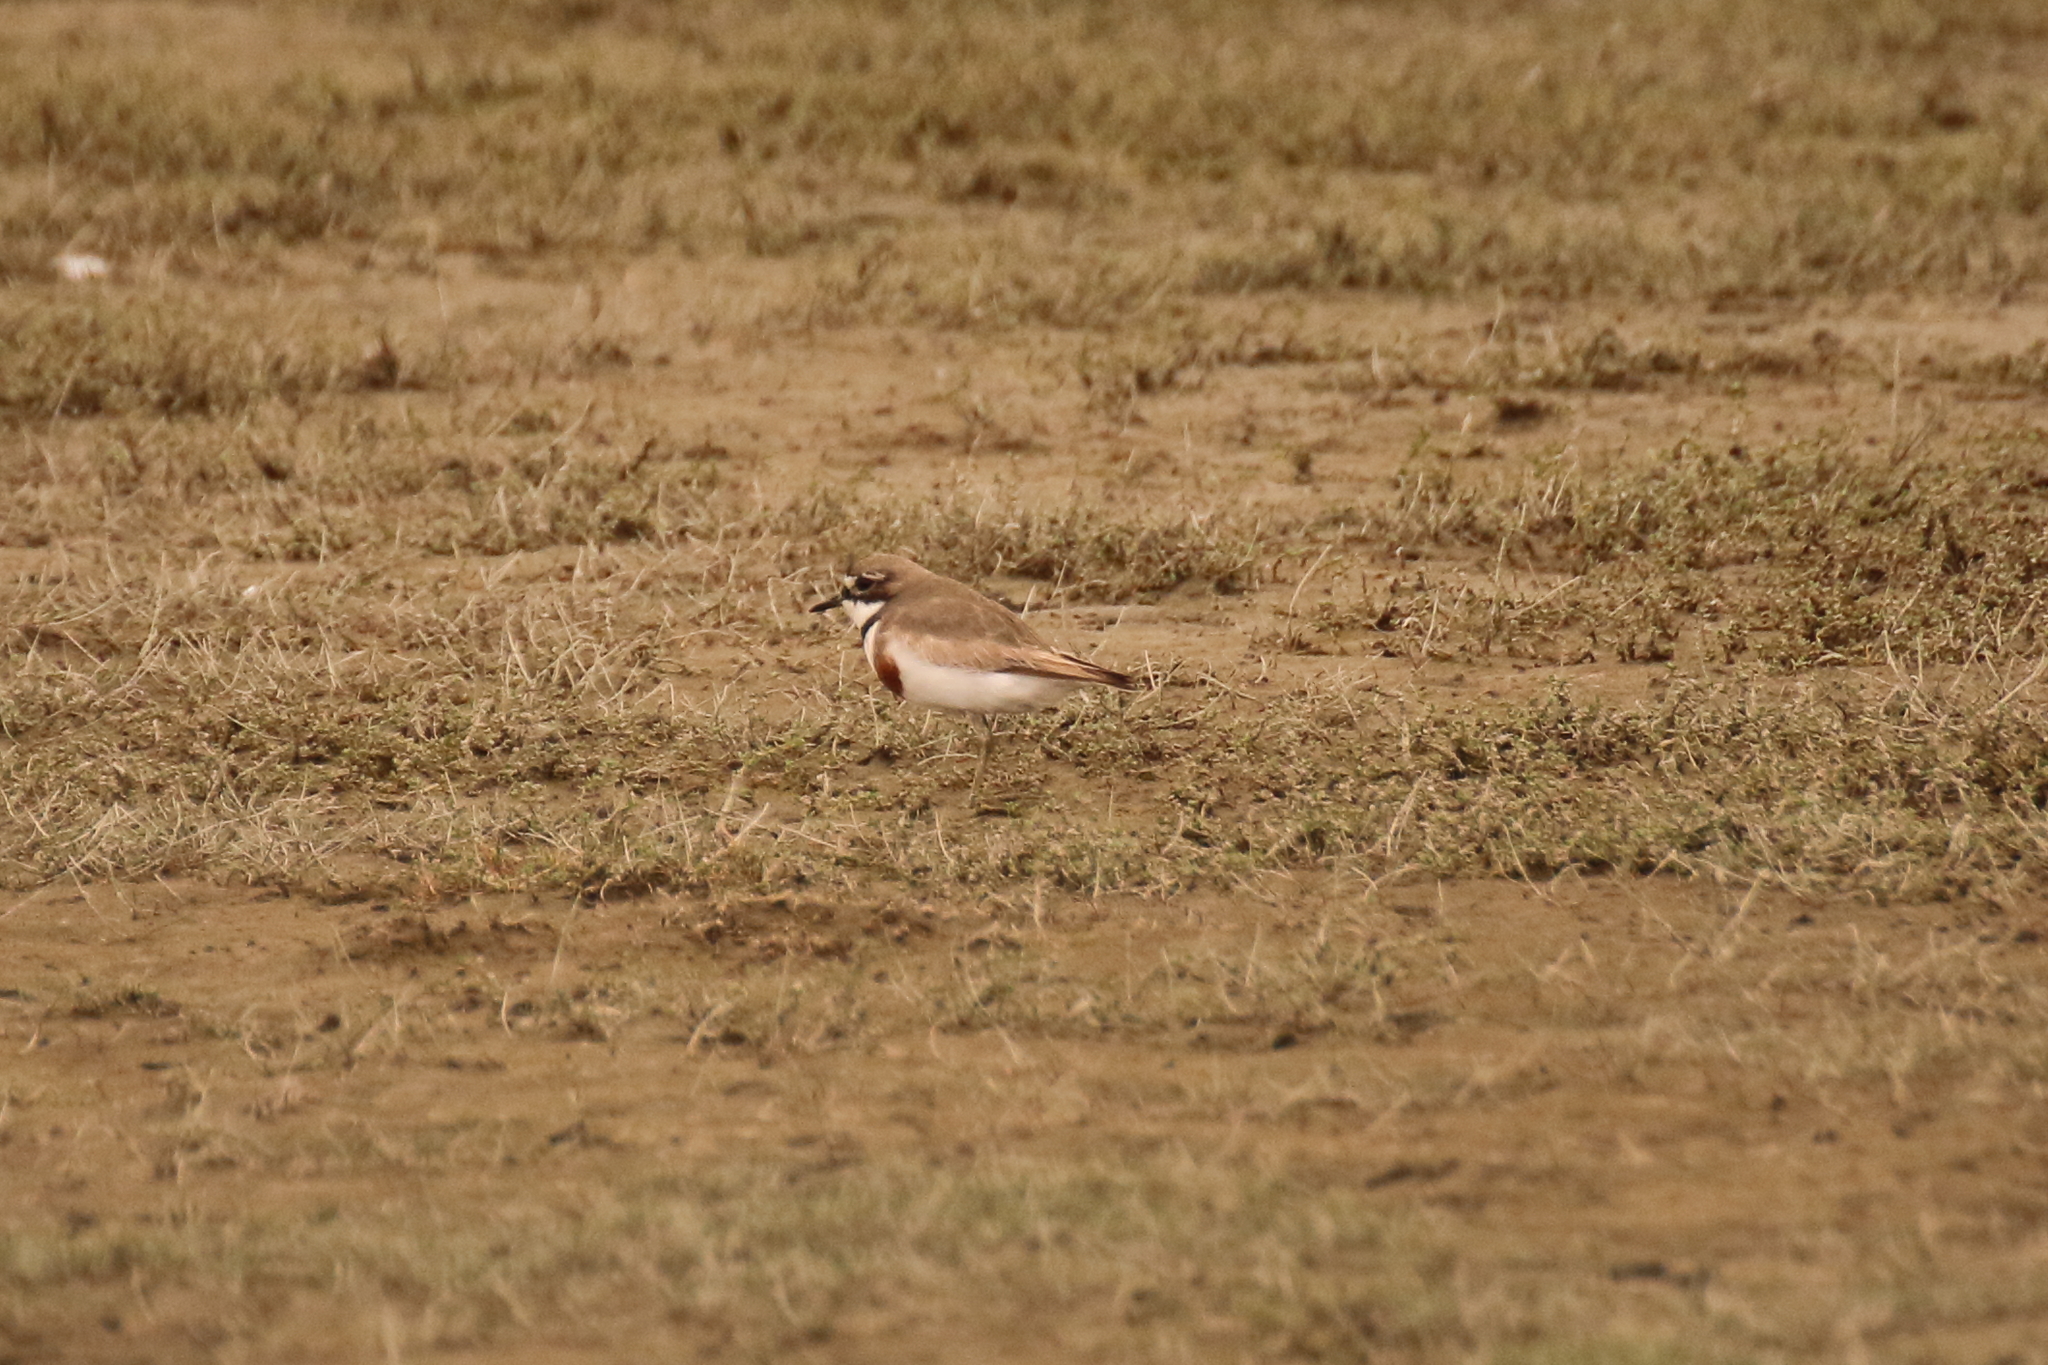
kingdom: Animalia
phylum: Chordata
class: Aves
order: Charadriiformes
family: Charadriidae
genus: Anarhynchus
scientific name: Anarhynchus
